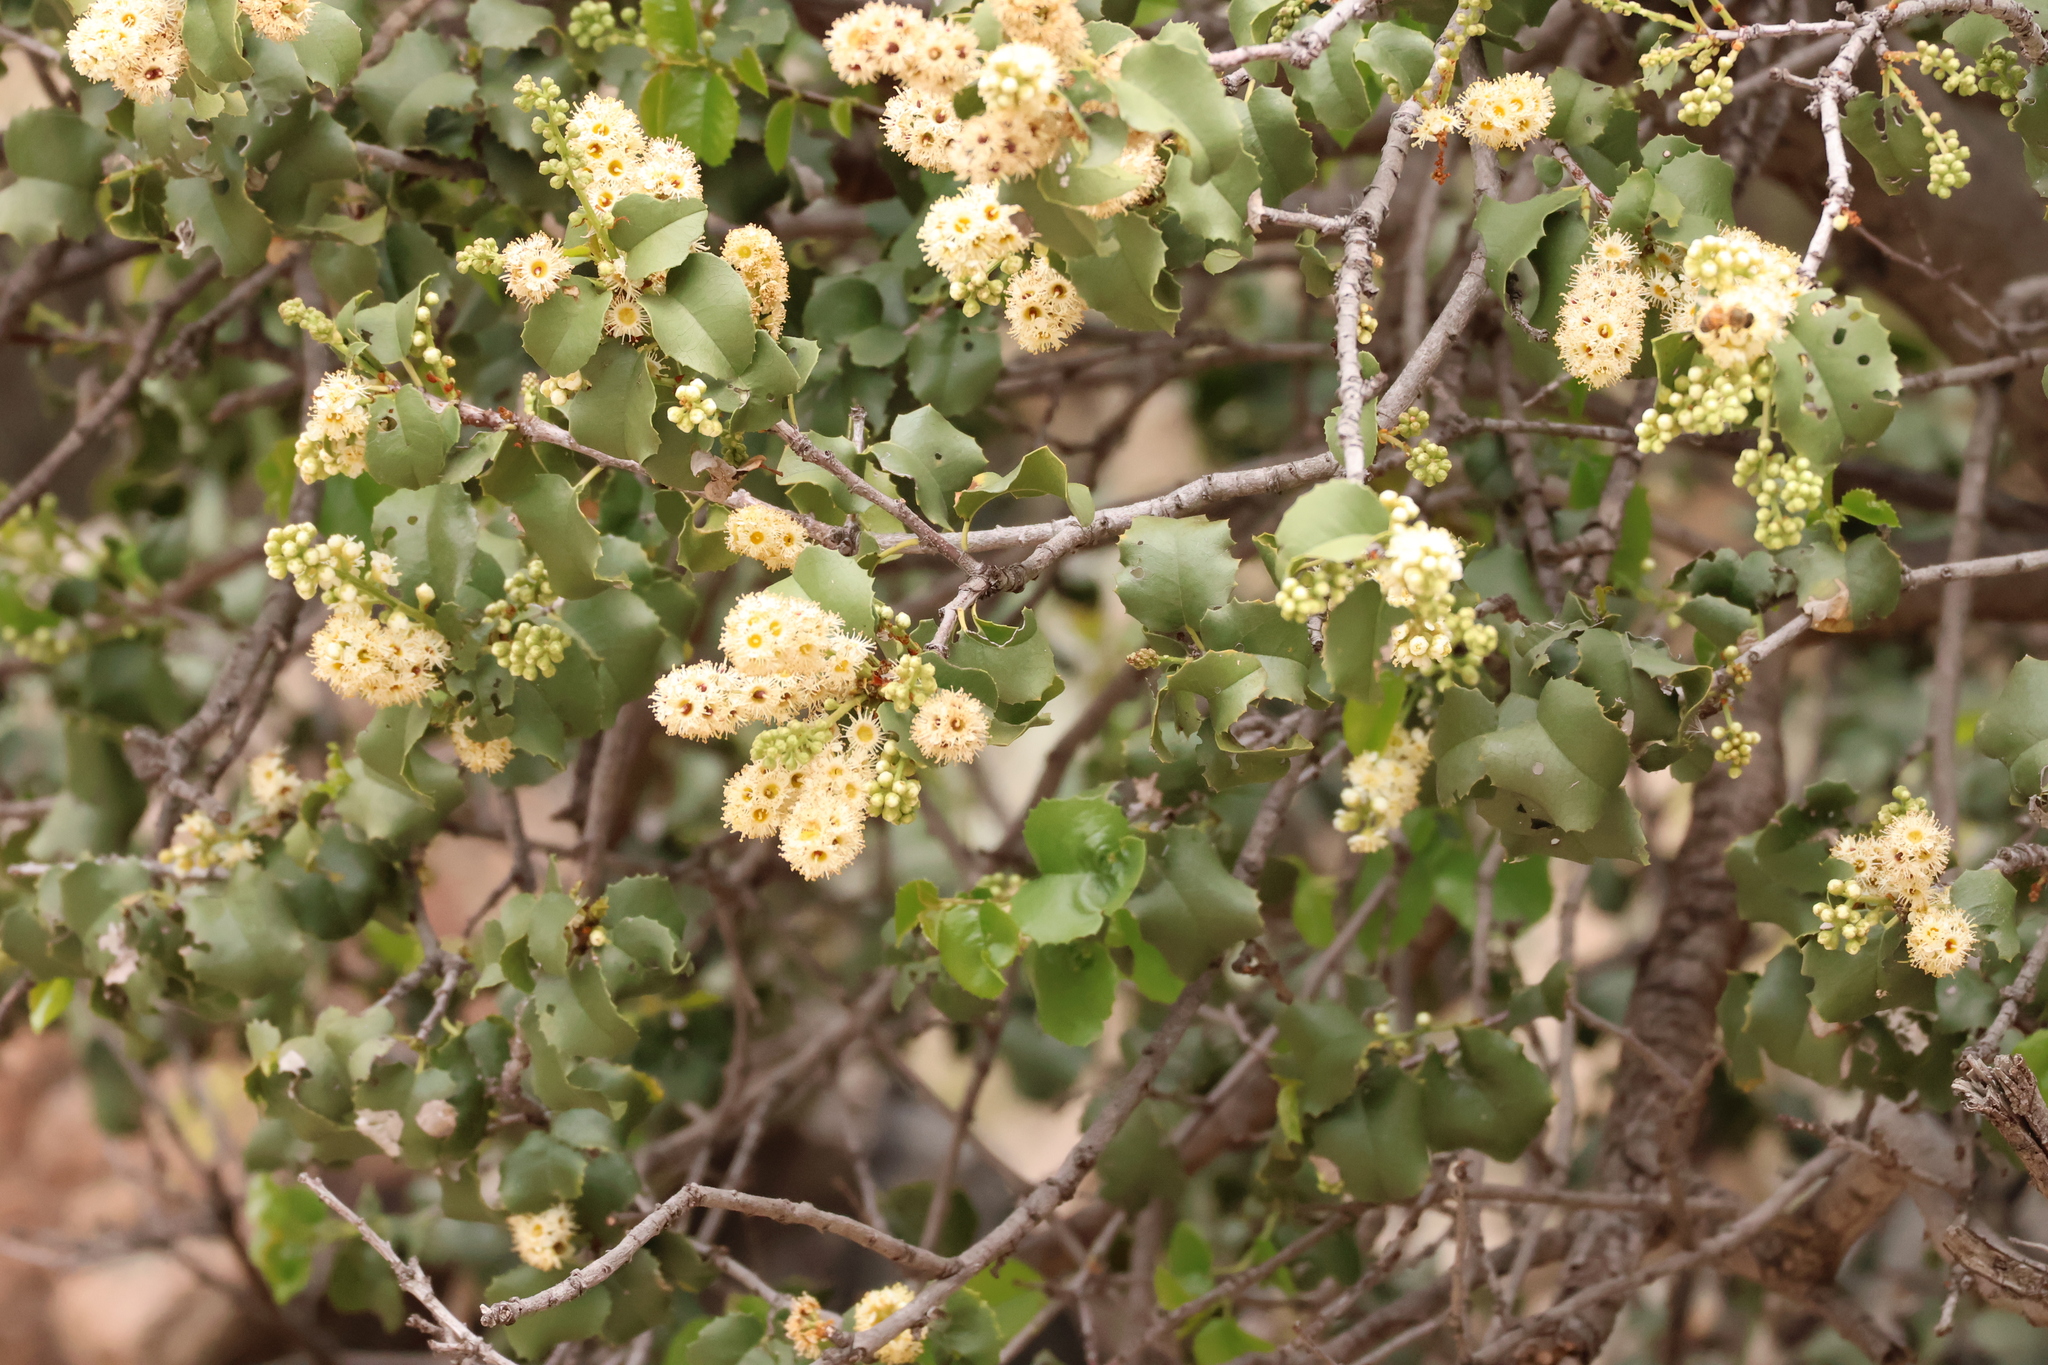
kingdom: Plantae
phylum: Tracheophyta
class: Magnoliopsida
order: Rosales
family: Rosaceae
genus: Prunus
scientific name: Prunus ilicifolia
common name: Hollyleaf cherry
